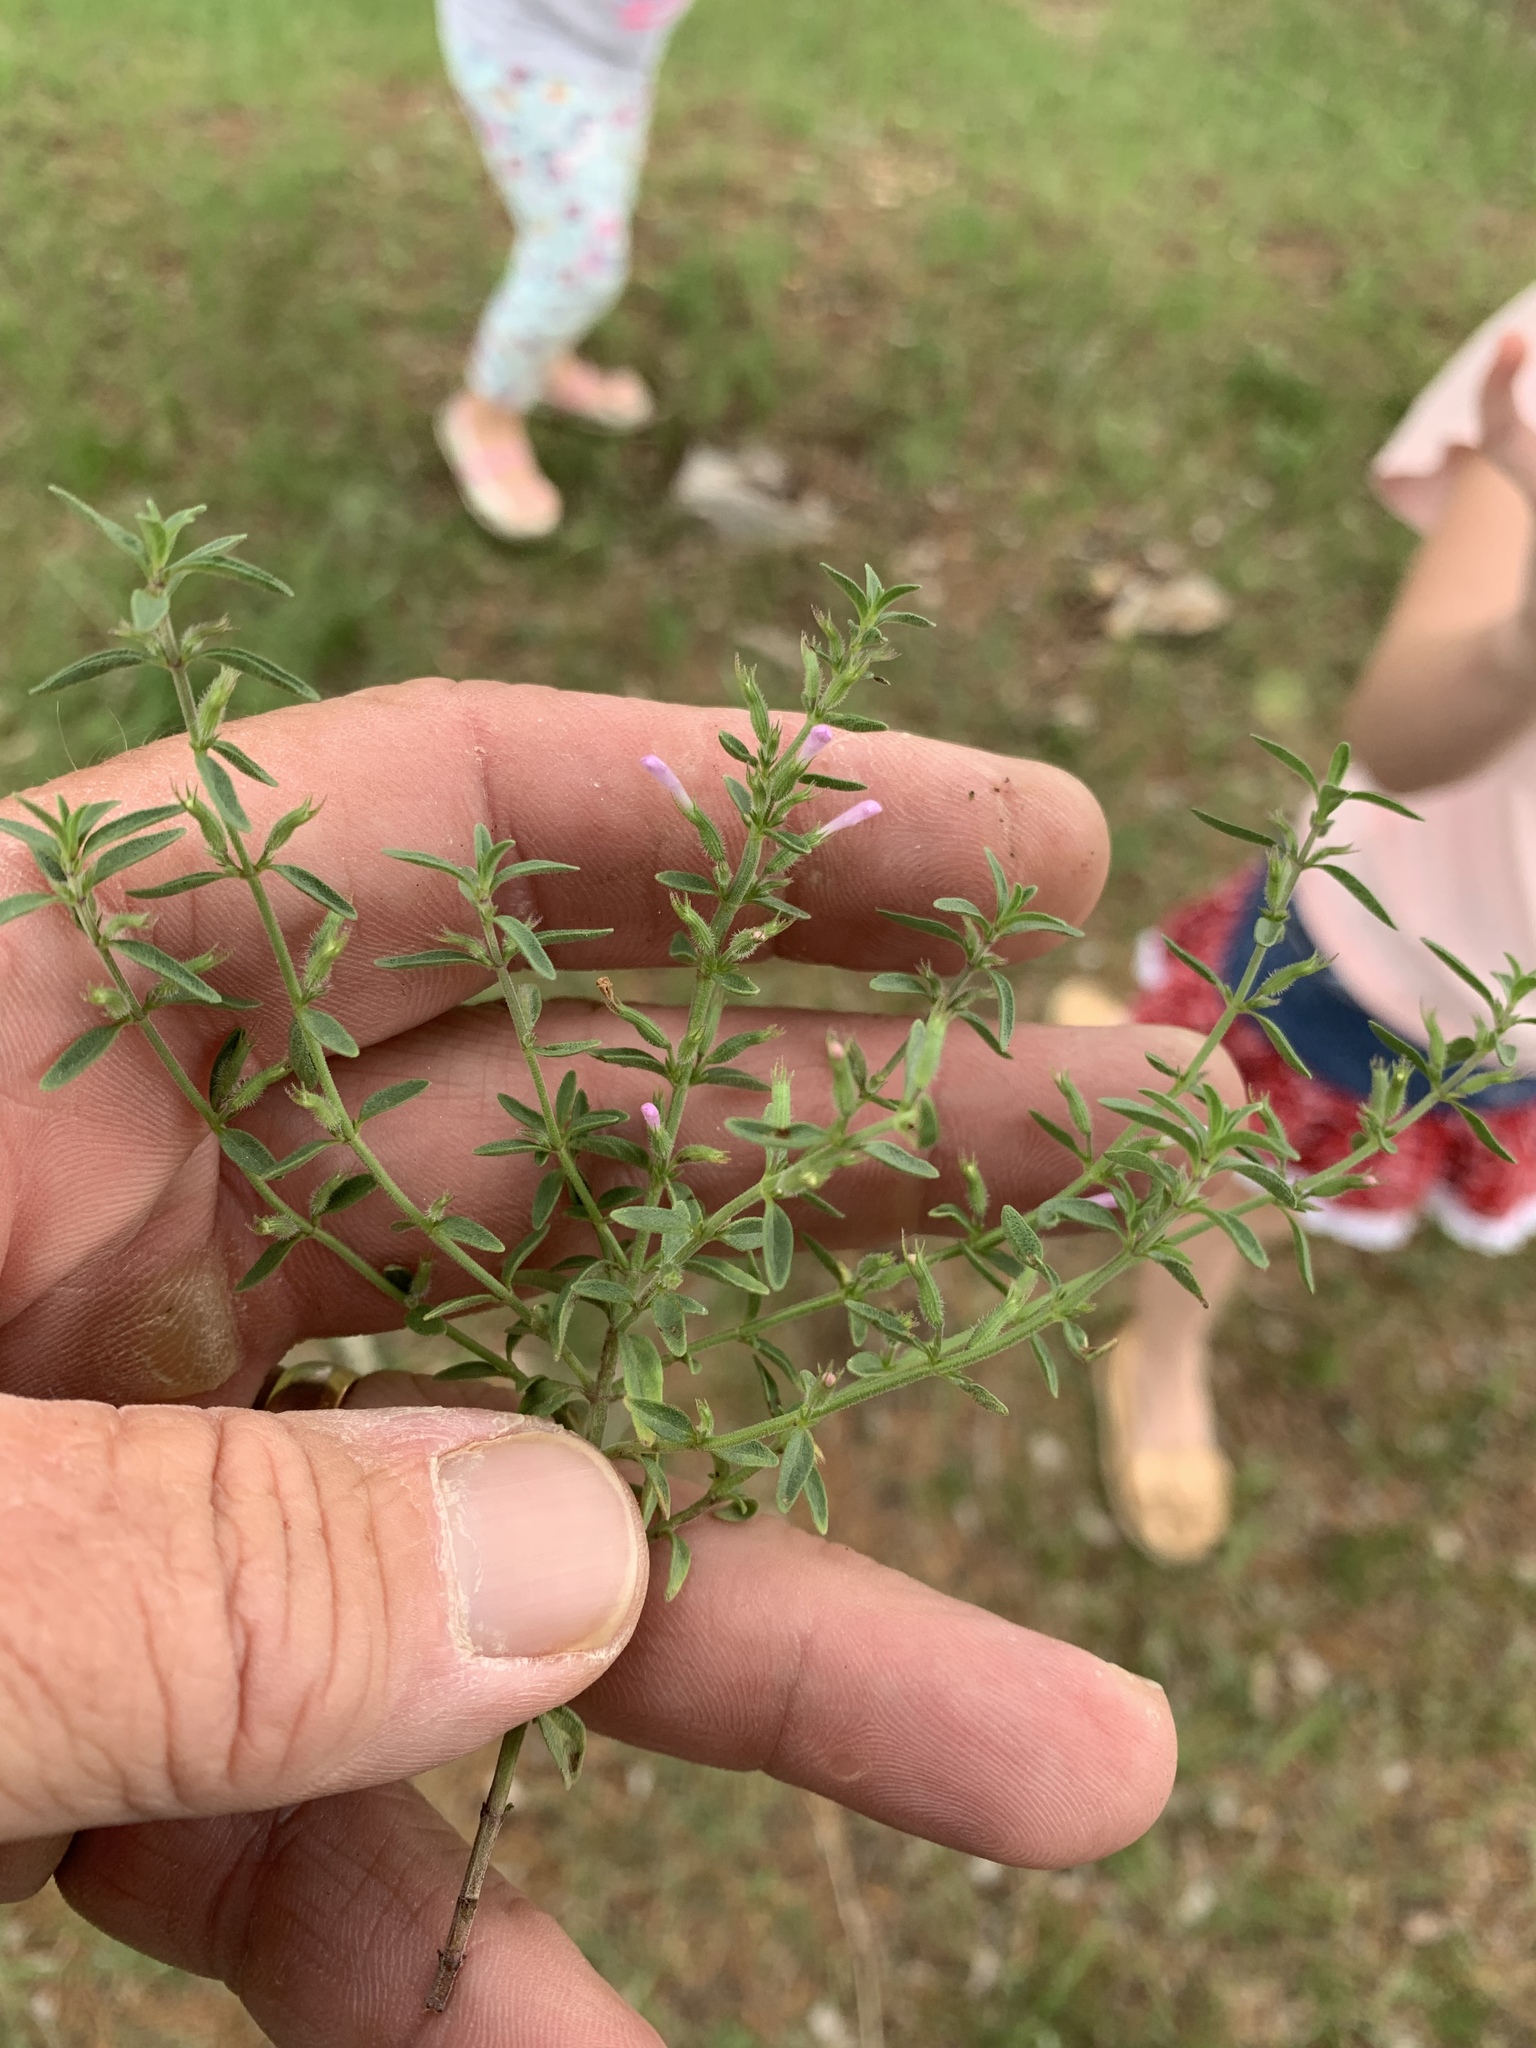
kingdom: Plantae
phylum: Tracheophyta
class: Magnoliopsida
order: Lamiales
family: Lamiaceae
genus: Hedeoma
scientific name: Hedeoma drummondii
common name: New mexico pennyroyal
